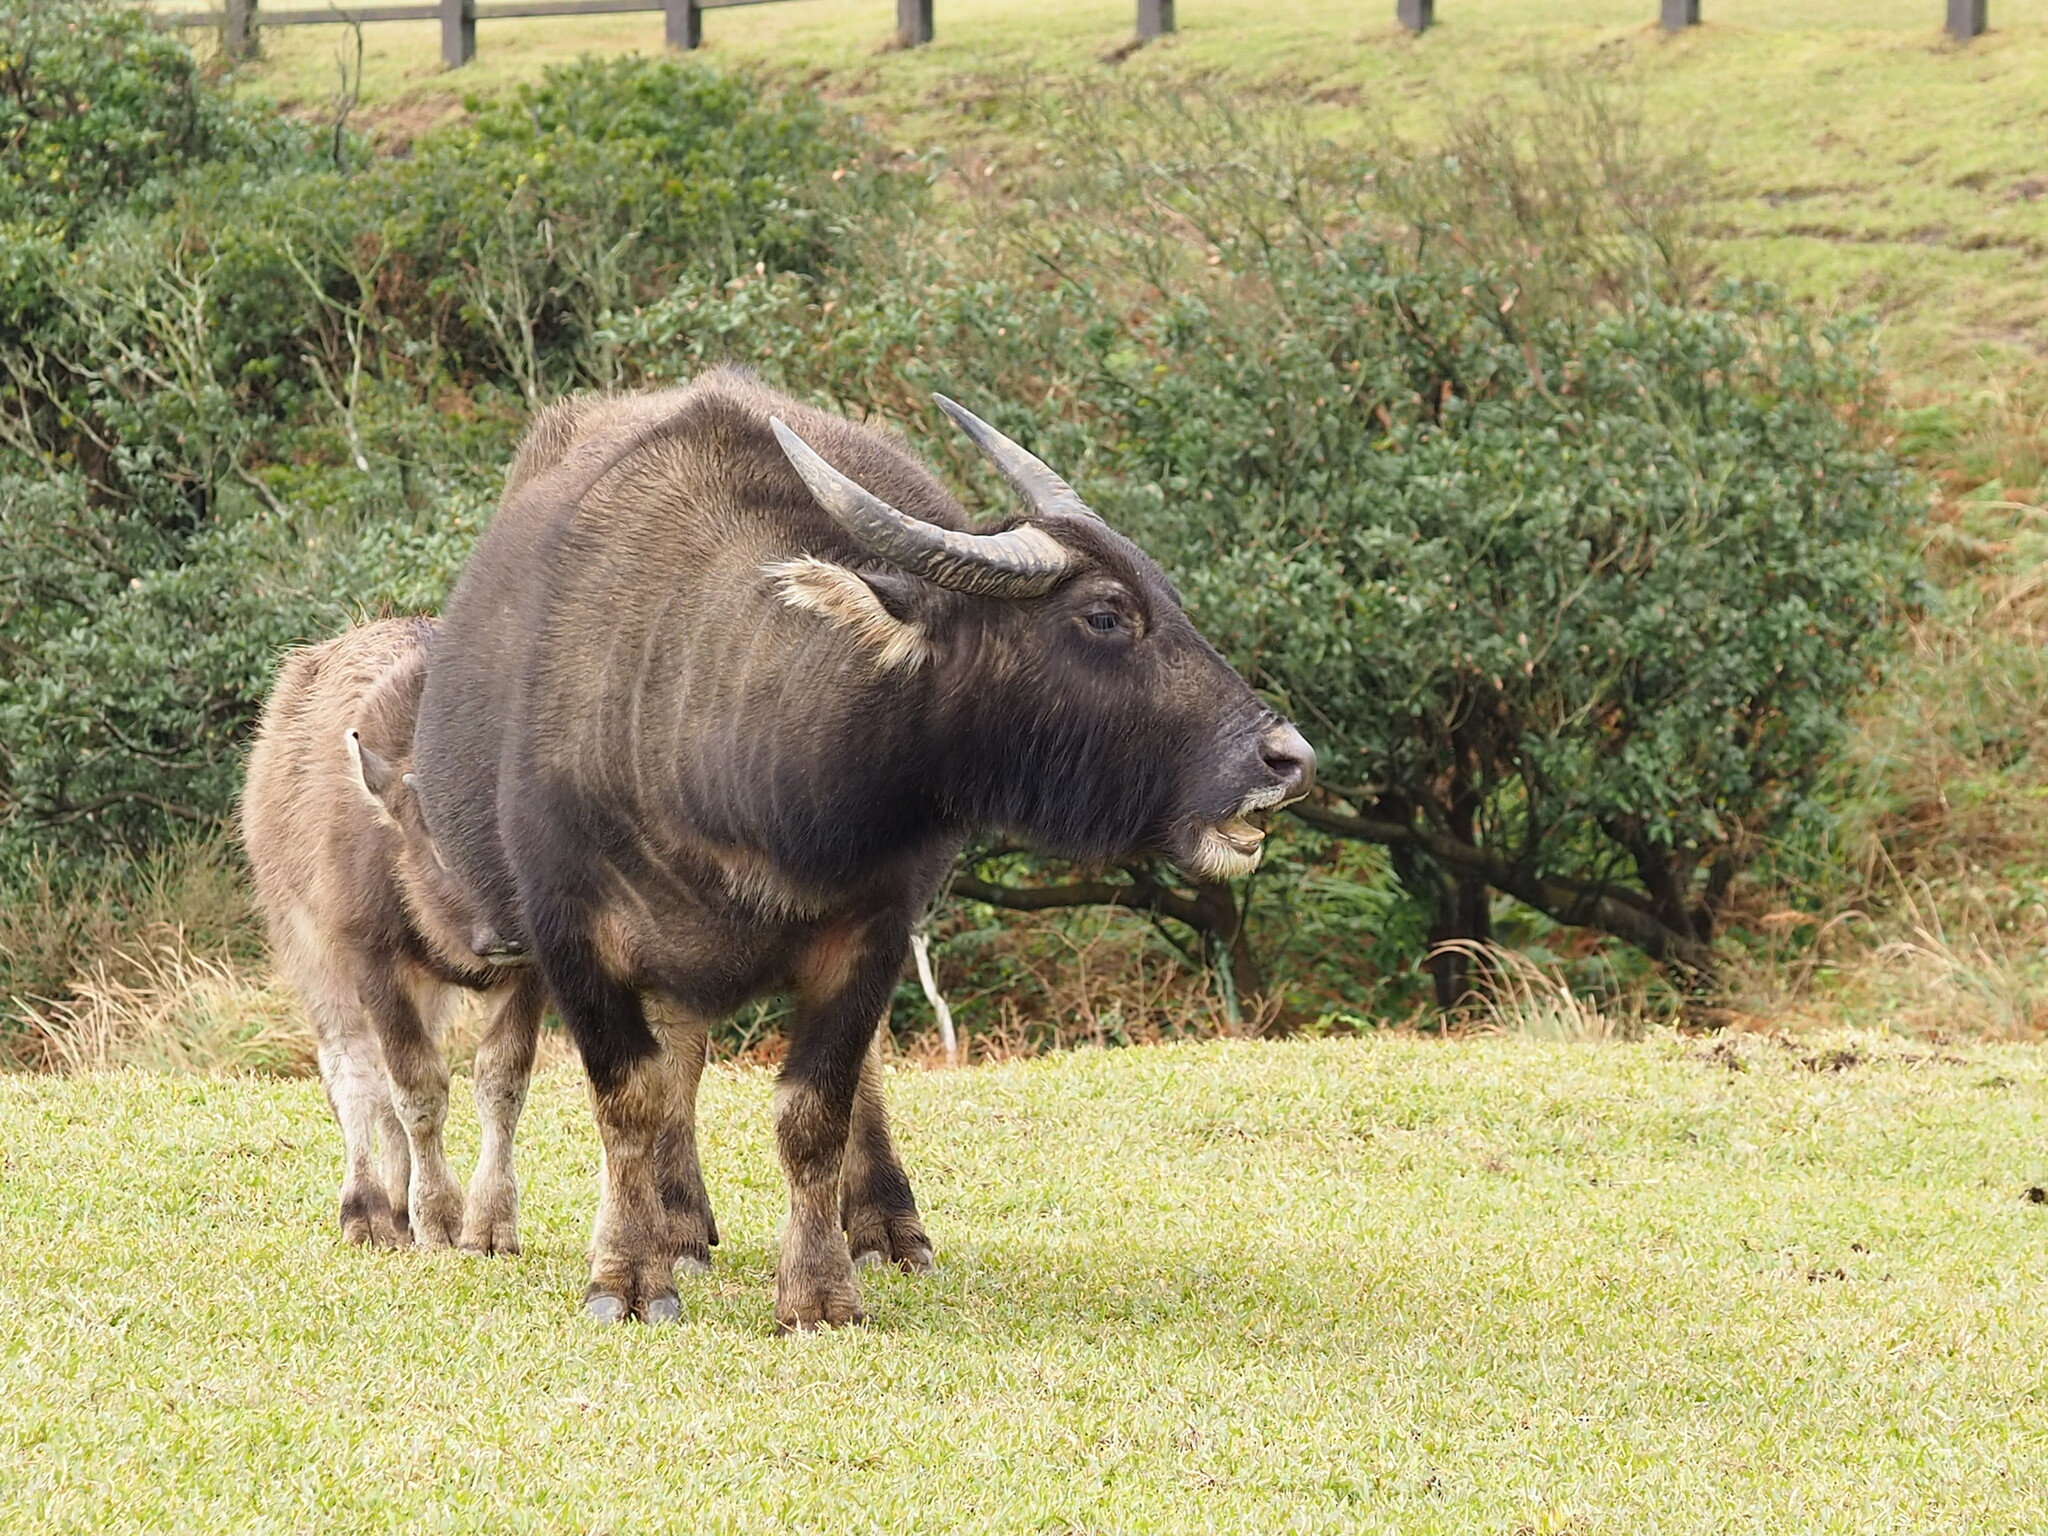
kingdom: Animalia
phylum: Chordata
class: Mammalia
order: Artiodactyla
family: Bovidae
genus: Bubalus
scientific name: Bubalus bubalis
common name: Water buffalo
